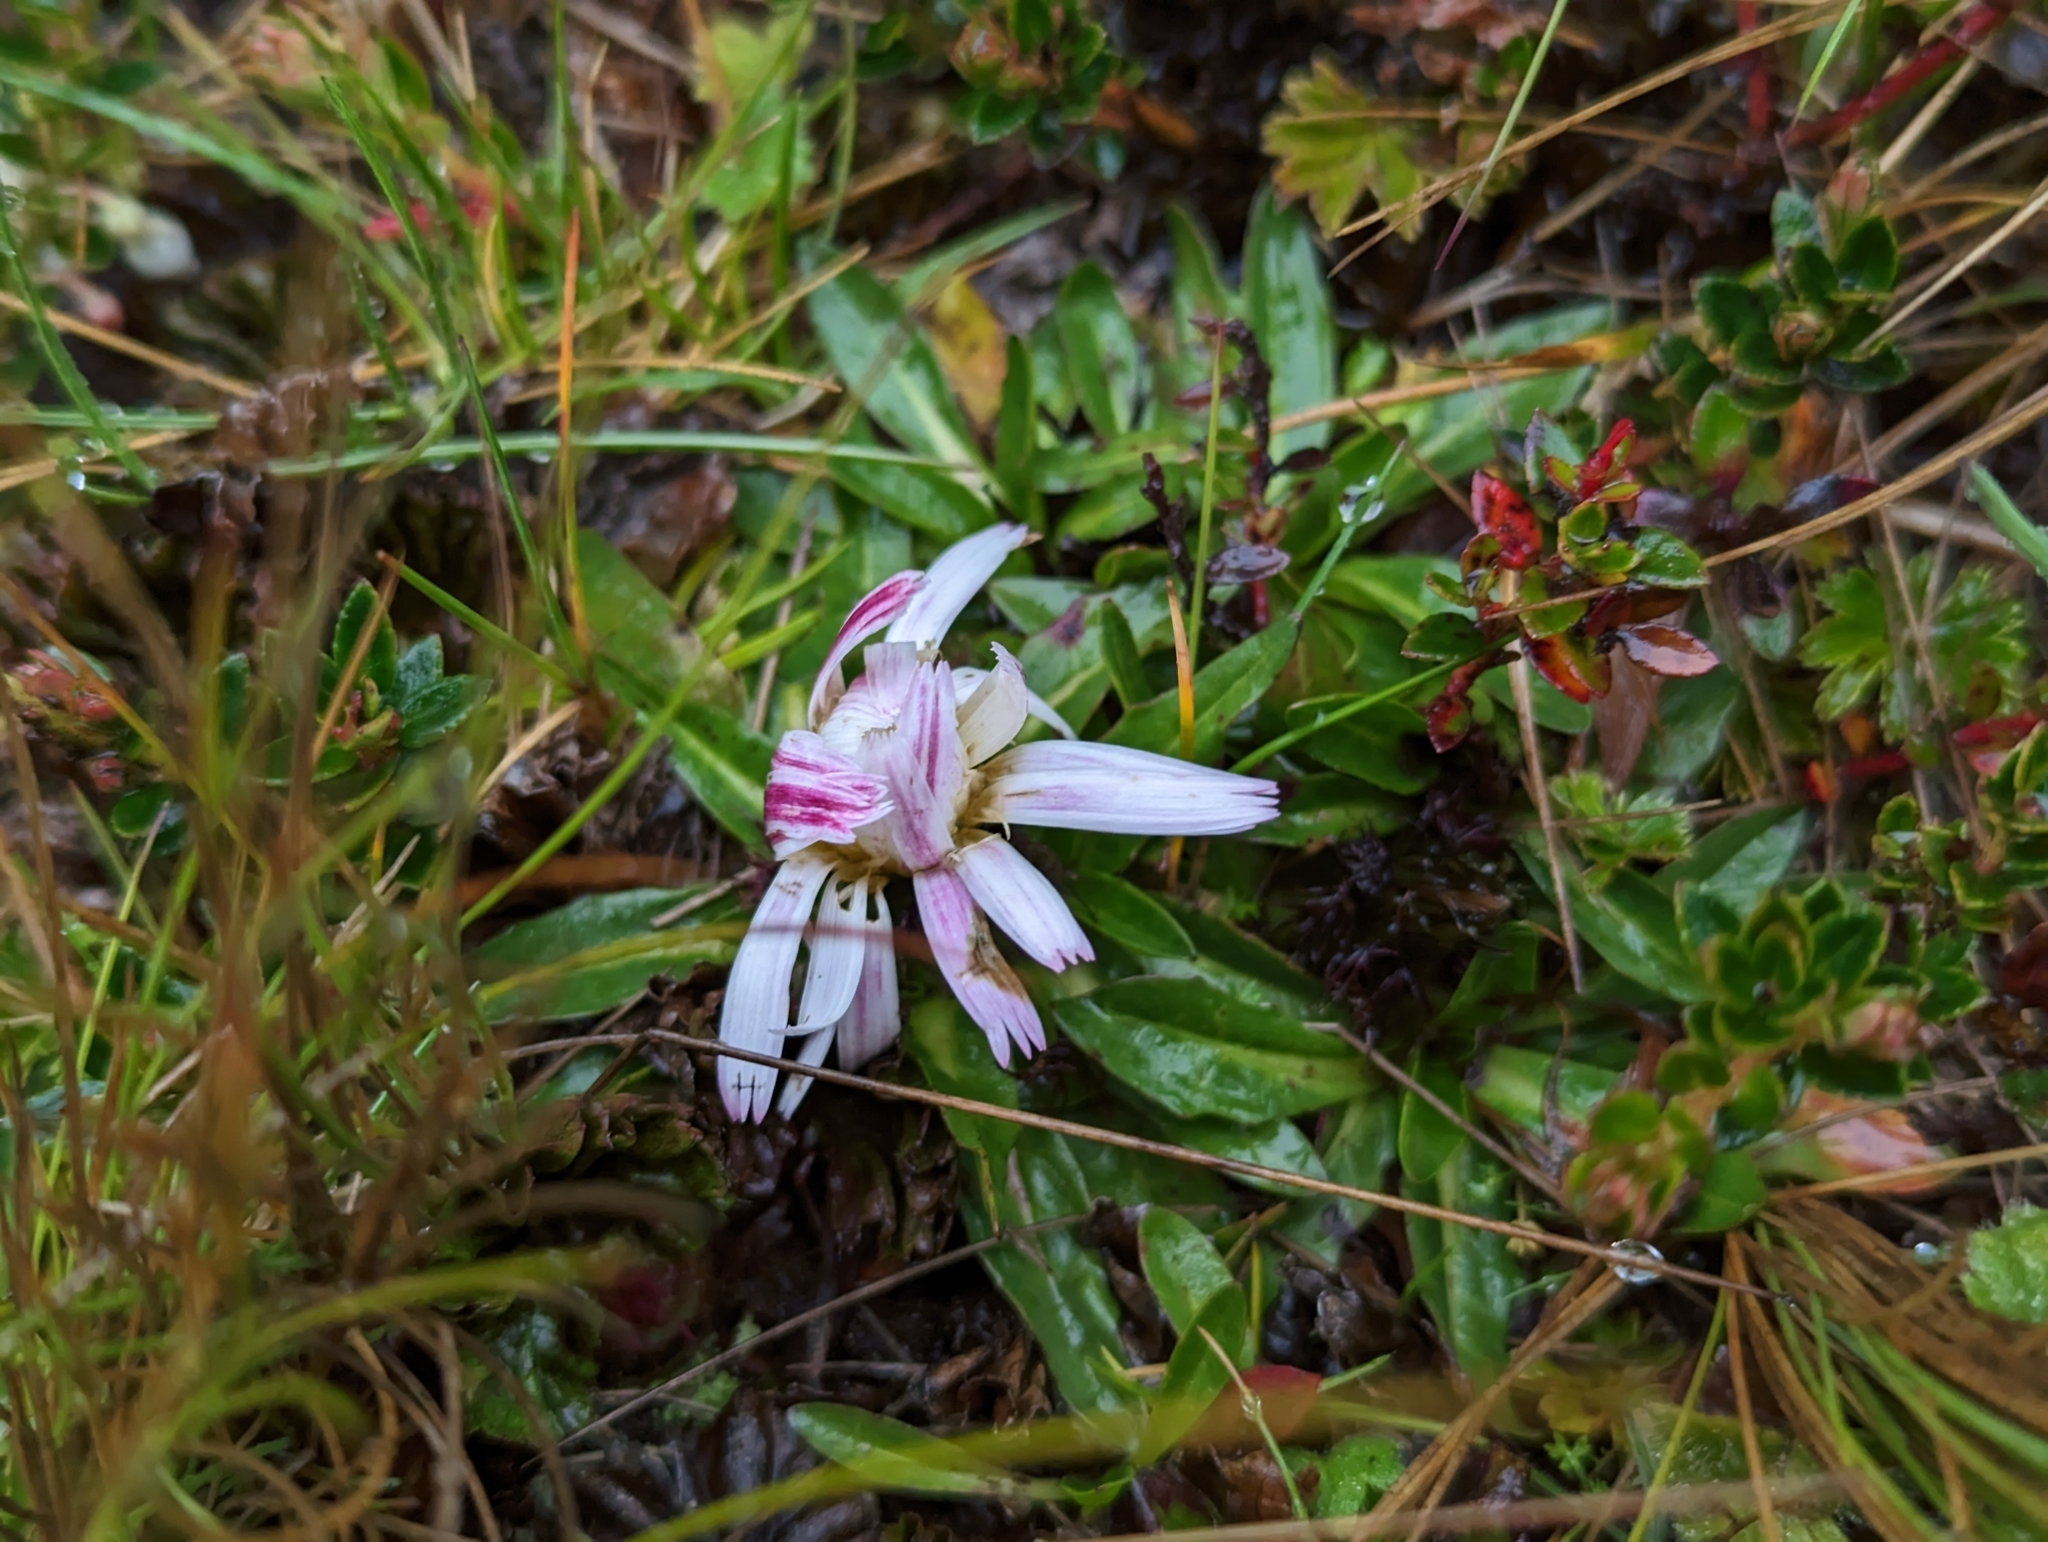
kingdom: Plantae
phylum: Tracheophyta
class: Magnoliopsida
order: Asterales
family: Asteraceae
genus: Hypochaeris
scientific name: Hypochaeris sessiliflora
